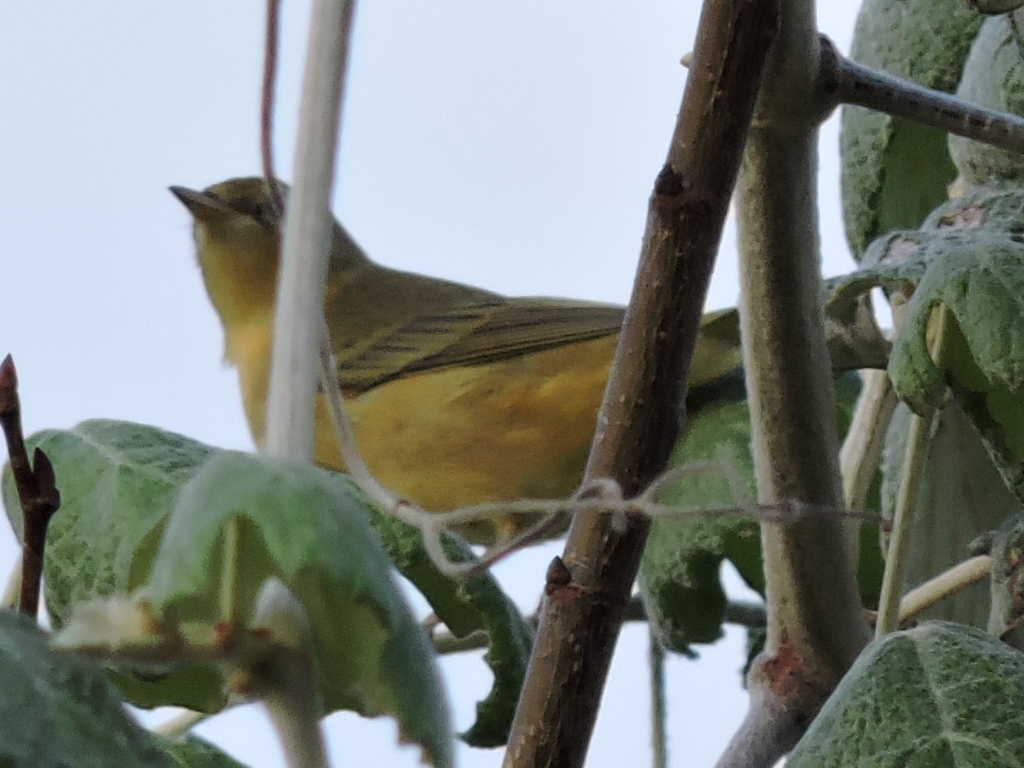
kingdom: Animalia
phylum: Chordata
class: Aves
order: Passeriformes
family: Parulidae
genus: Setophaga
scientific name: Setophaga petechia
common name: Yellow warbler
